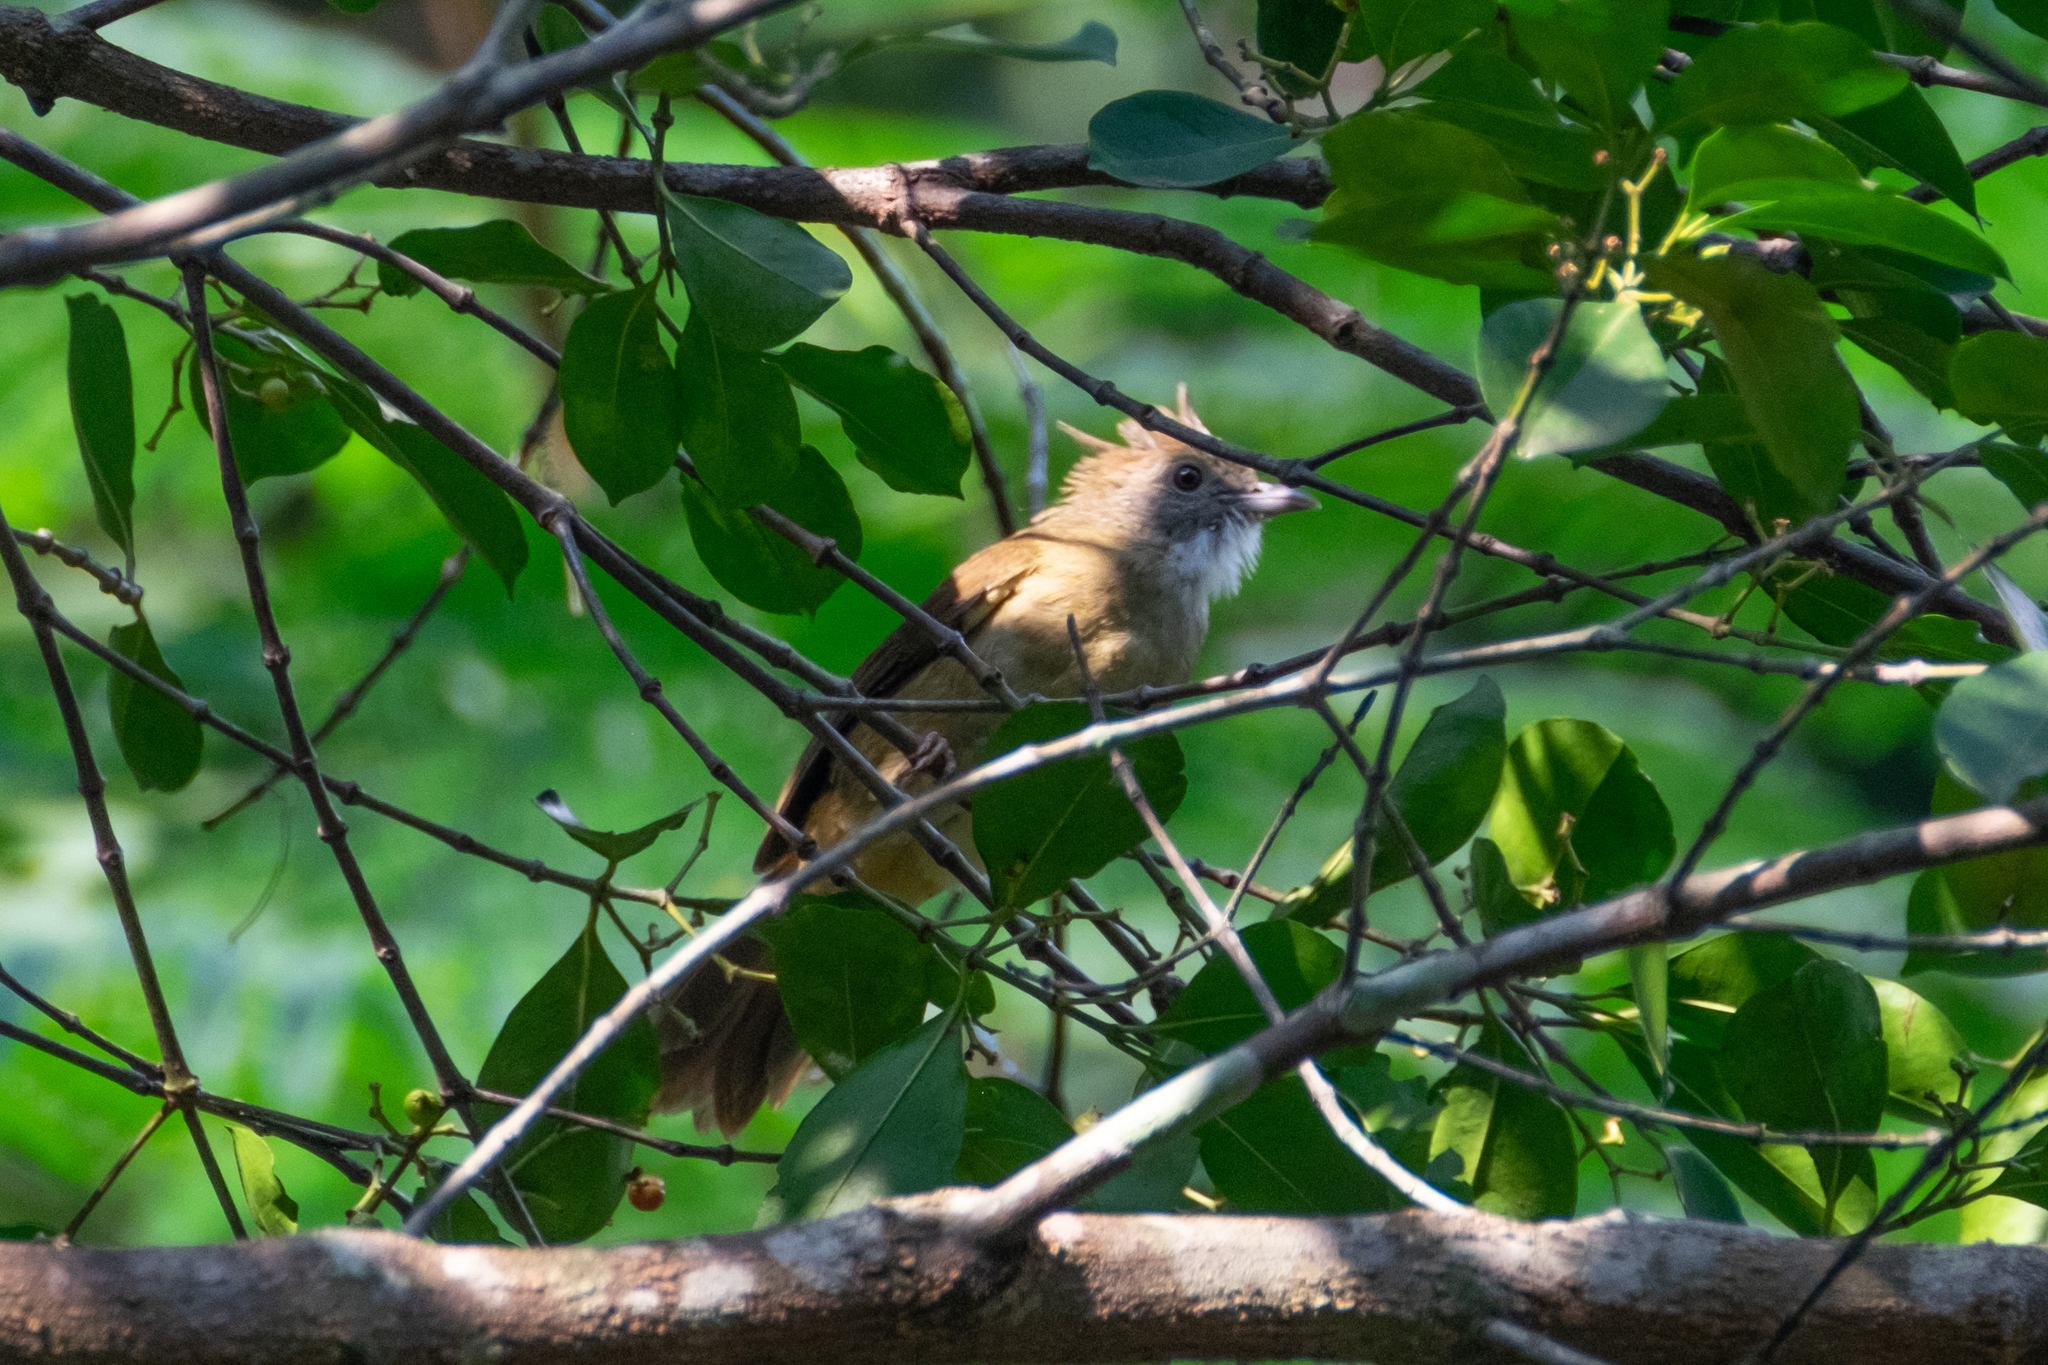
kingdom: Animalia
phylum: Chordata
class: Aves
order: Passeriformes
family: Pycnonotidae
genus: Alophoixus
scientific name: Alophoixus pallidus
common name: Puff-throated bulbul
